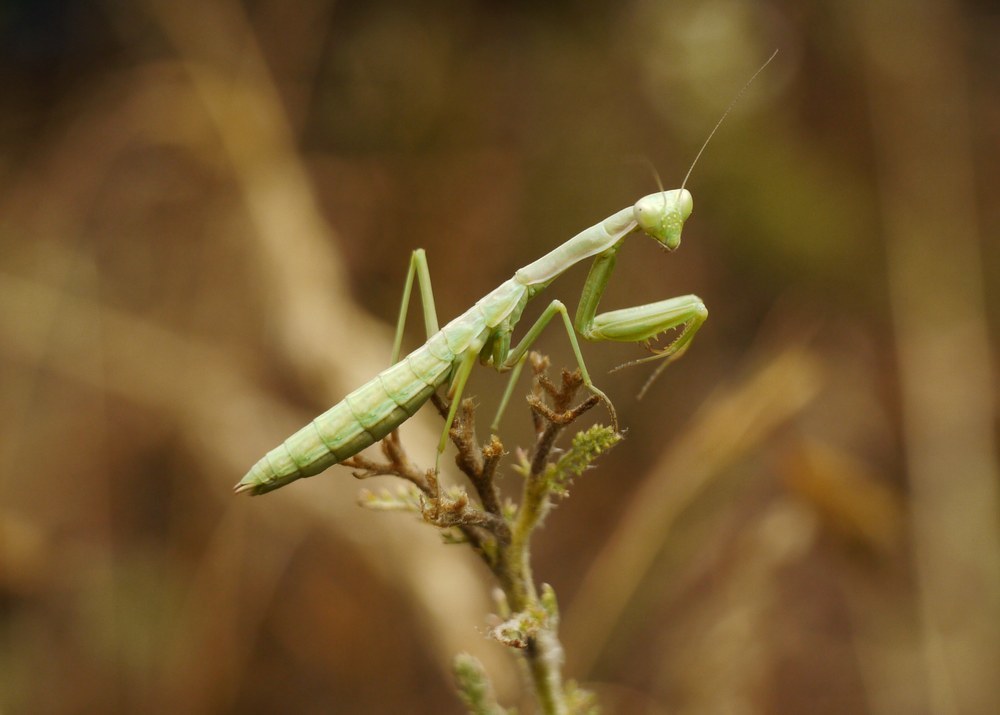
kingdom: Animalia
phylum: Arthropoda
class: Insecta
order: Mantodea
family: Eremiaphilidae
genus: Iris
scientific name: Iris polystictica
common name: Dot-winged mantis
